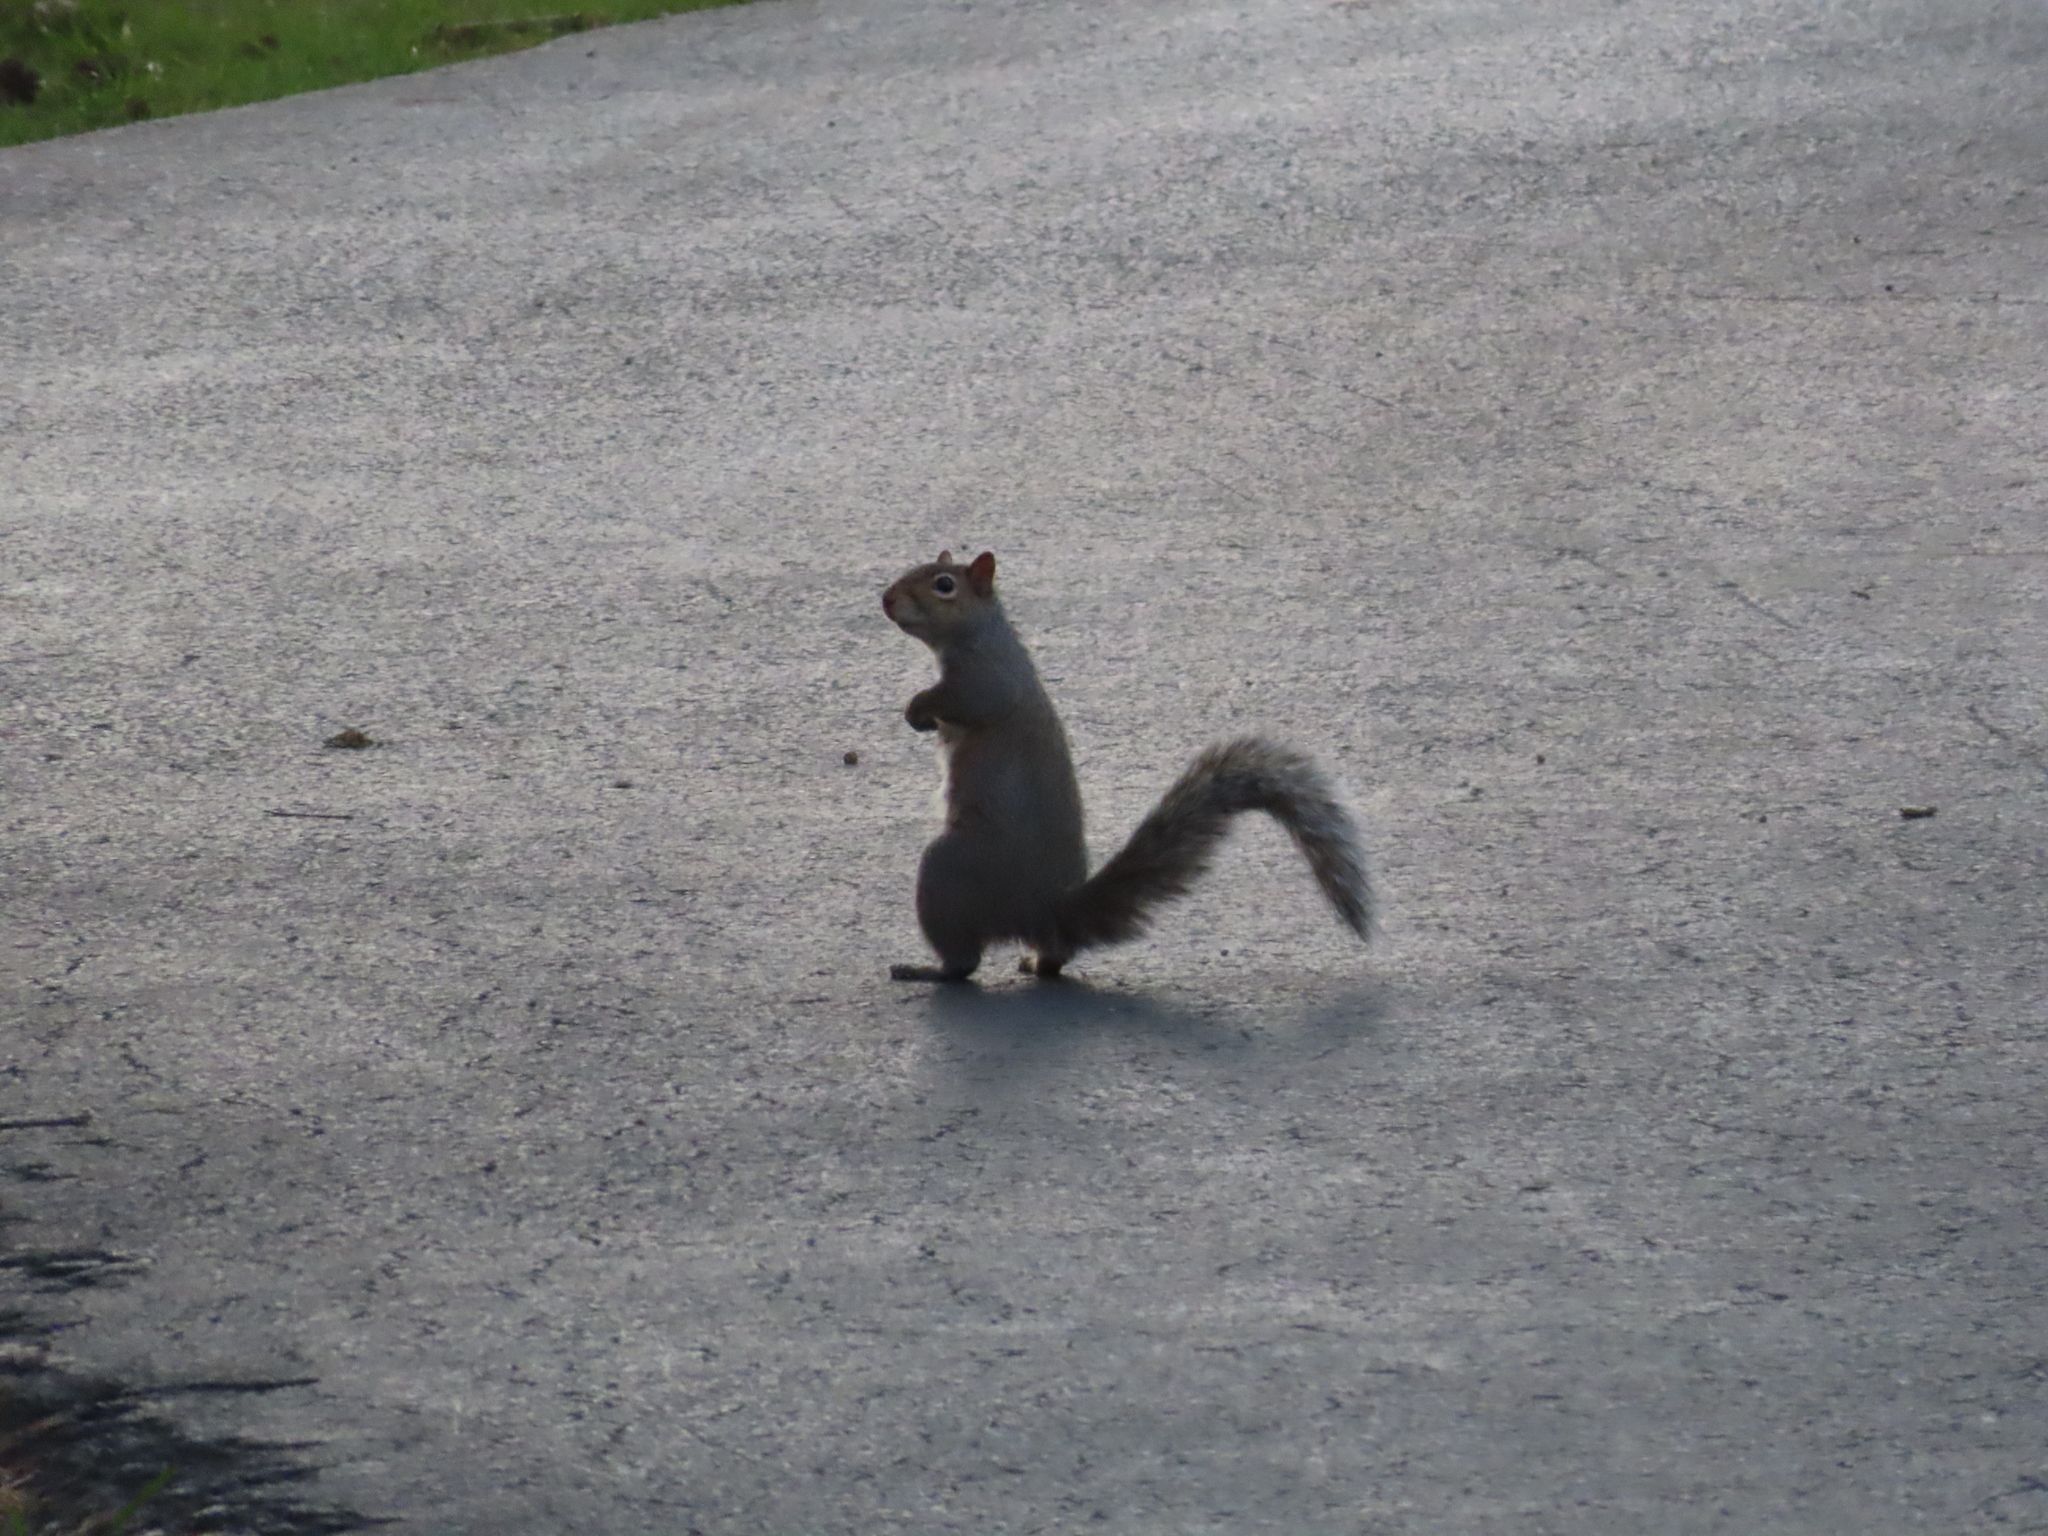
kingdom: Animalia
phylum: Chordata
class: Mammalia
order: Rodentia
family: Sciuridae
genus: Sciurus
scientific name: Sciurus carolinensis
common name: Eastern gray squirrel
